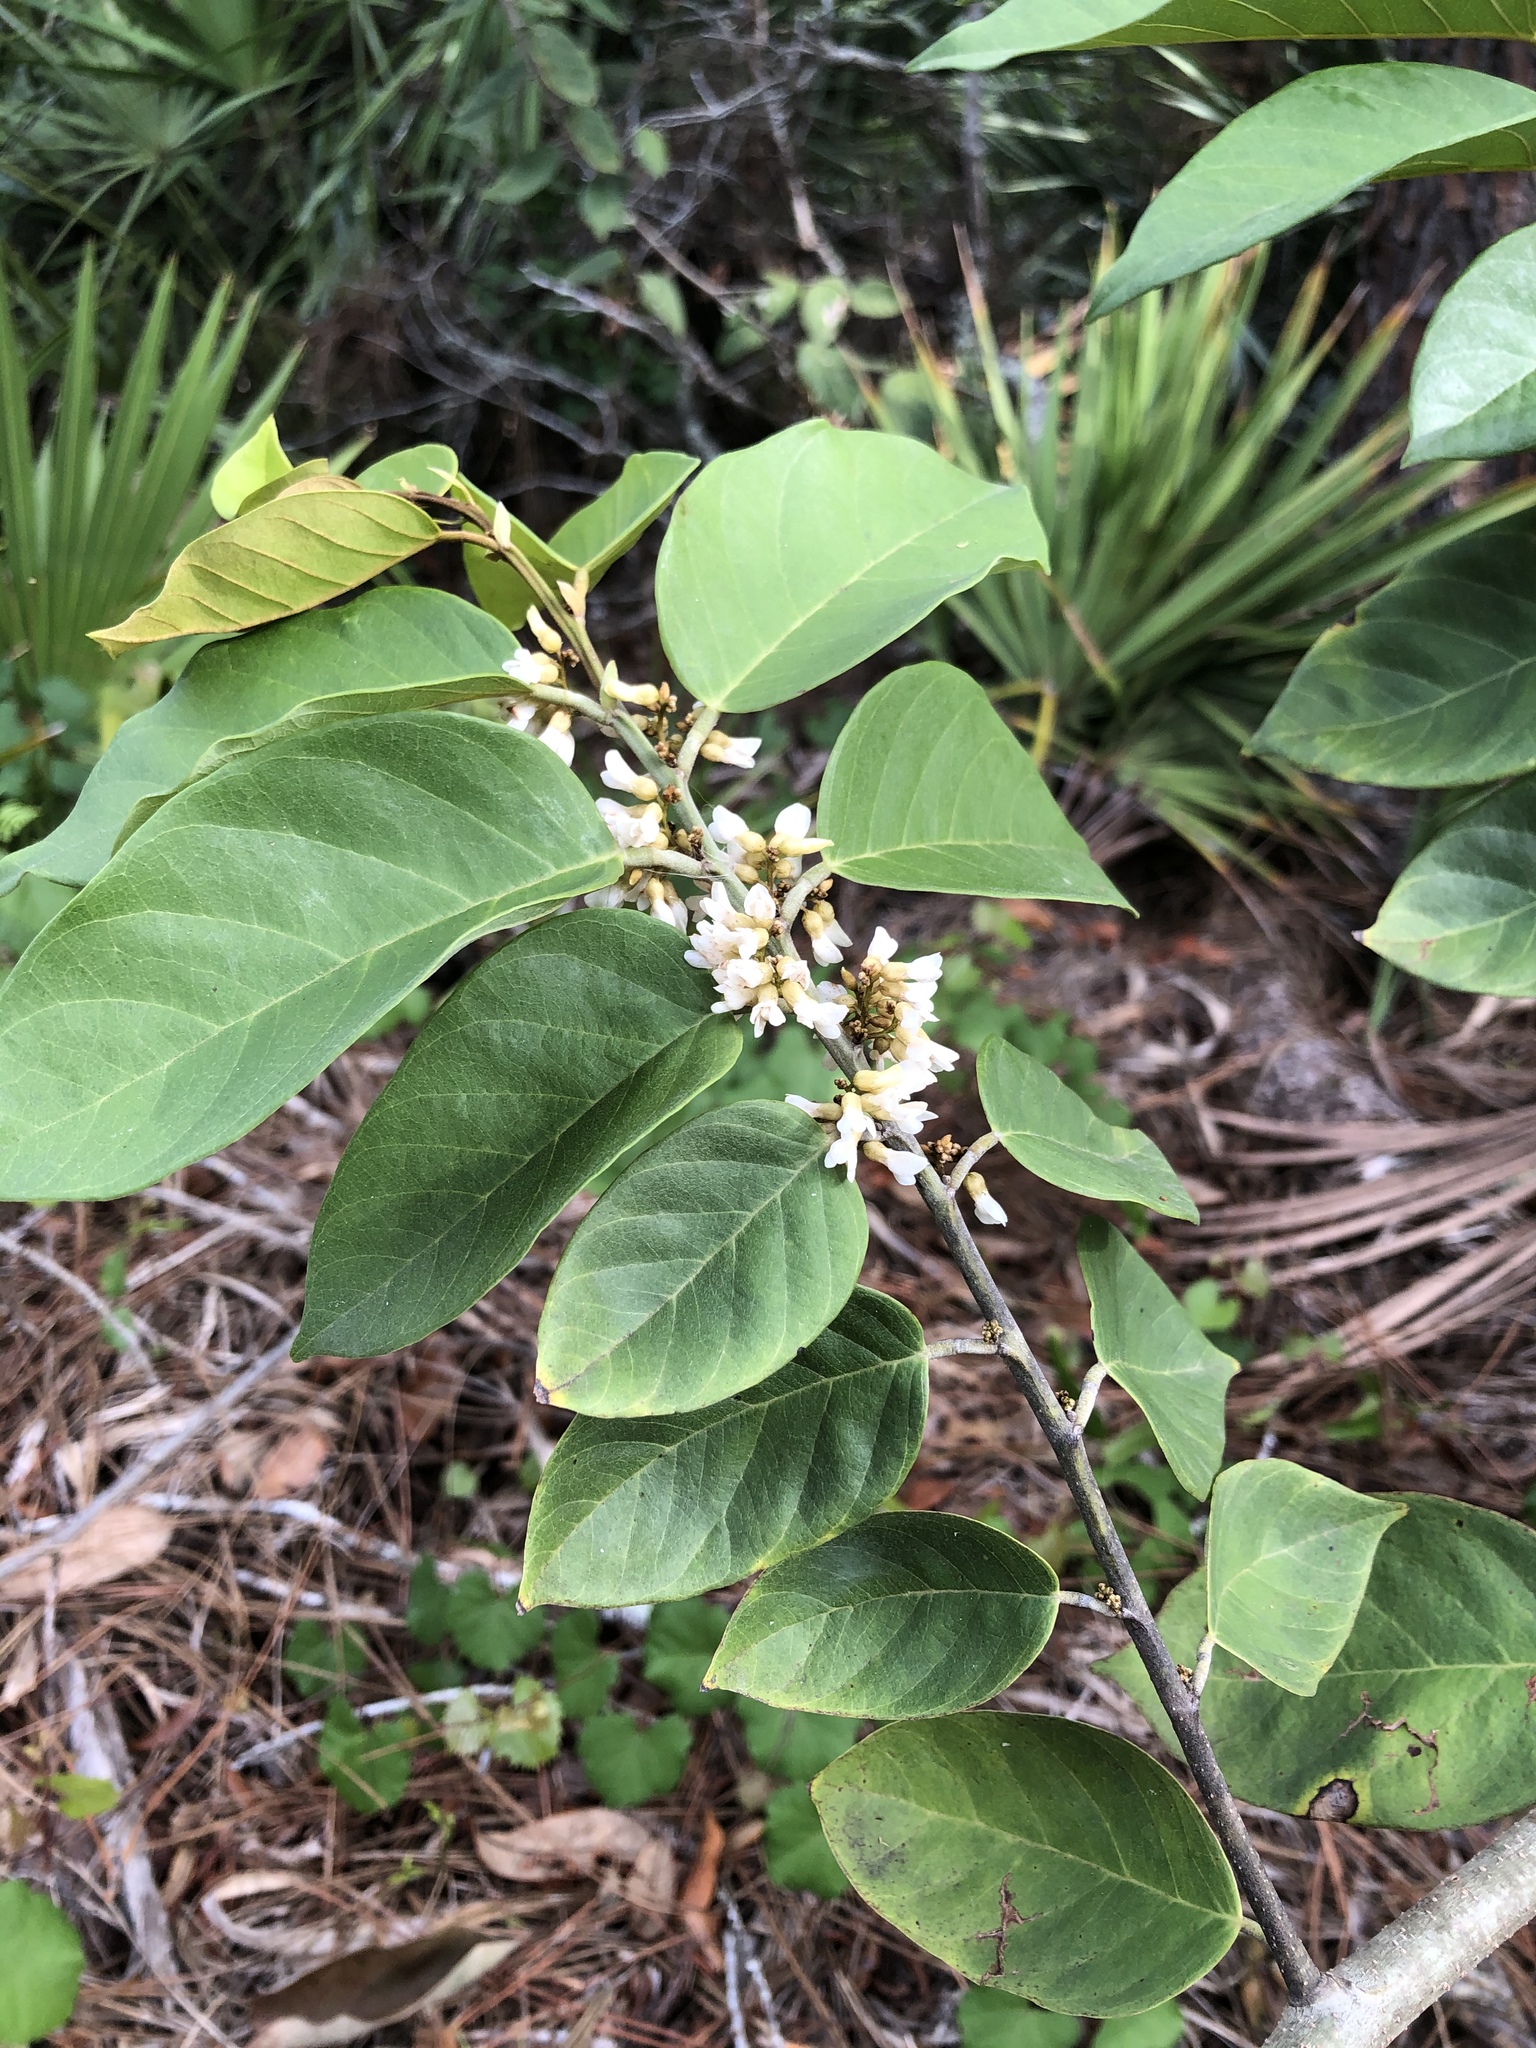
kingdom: Plantae
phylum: Tracheophyta
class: Magnoliopsida
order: Fabales
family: Fabaceae
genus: Dalbergia
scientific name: Dalbergia ecastaphyllum
